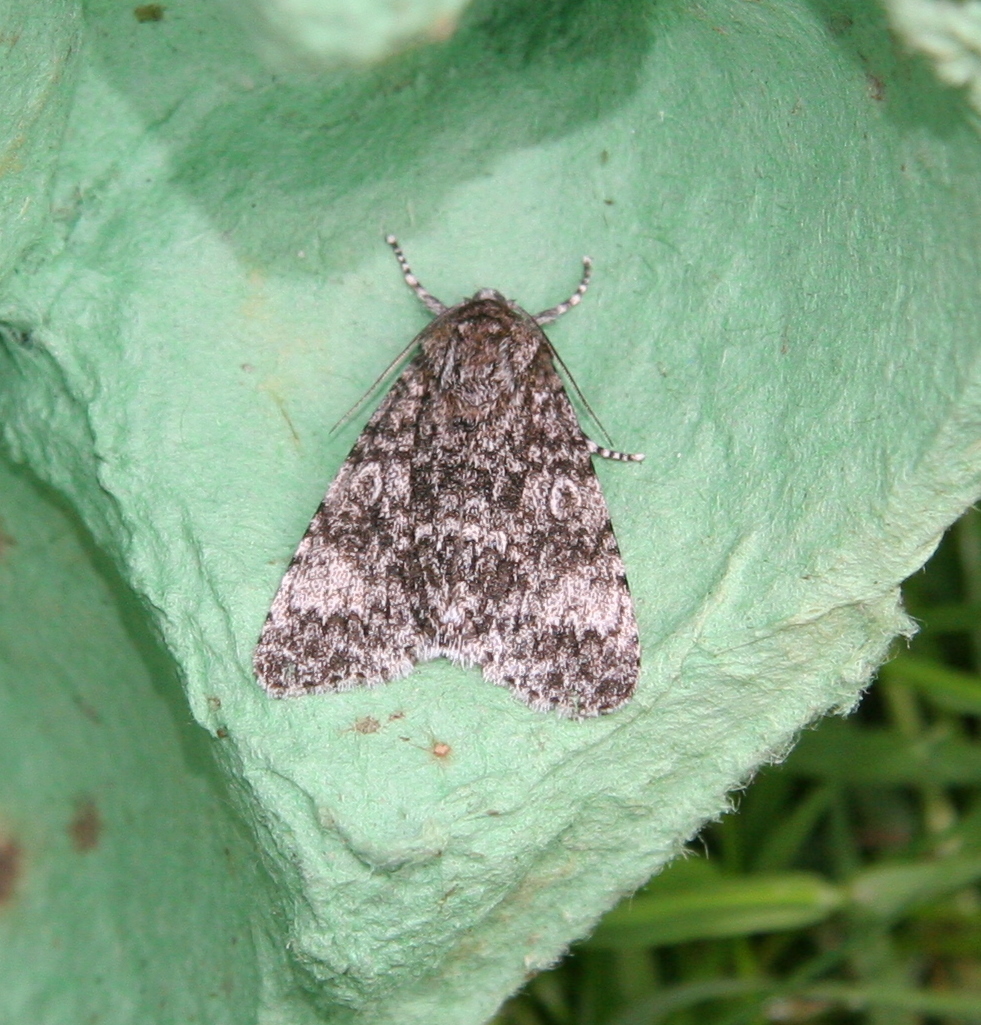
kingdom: Animalia
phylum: Arthropoda
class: Insecta
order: Lepidoptera
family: Noctuidae
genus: Acronicta
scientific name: Acronicta megacephala
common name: Poplar grey
